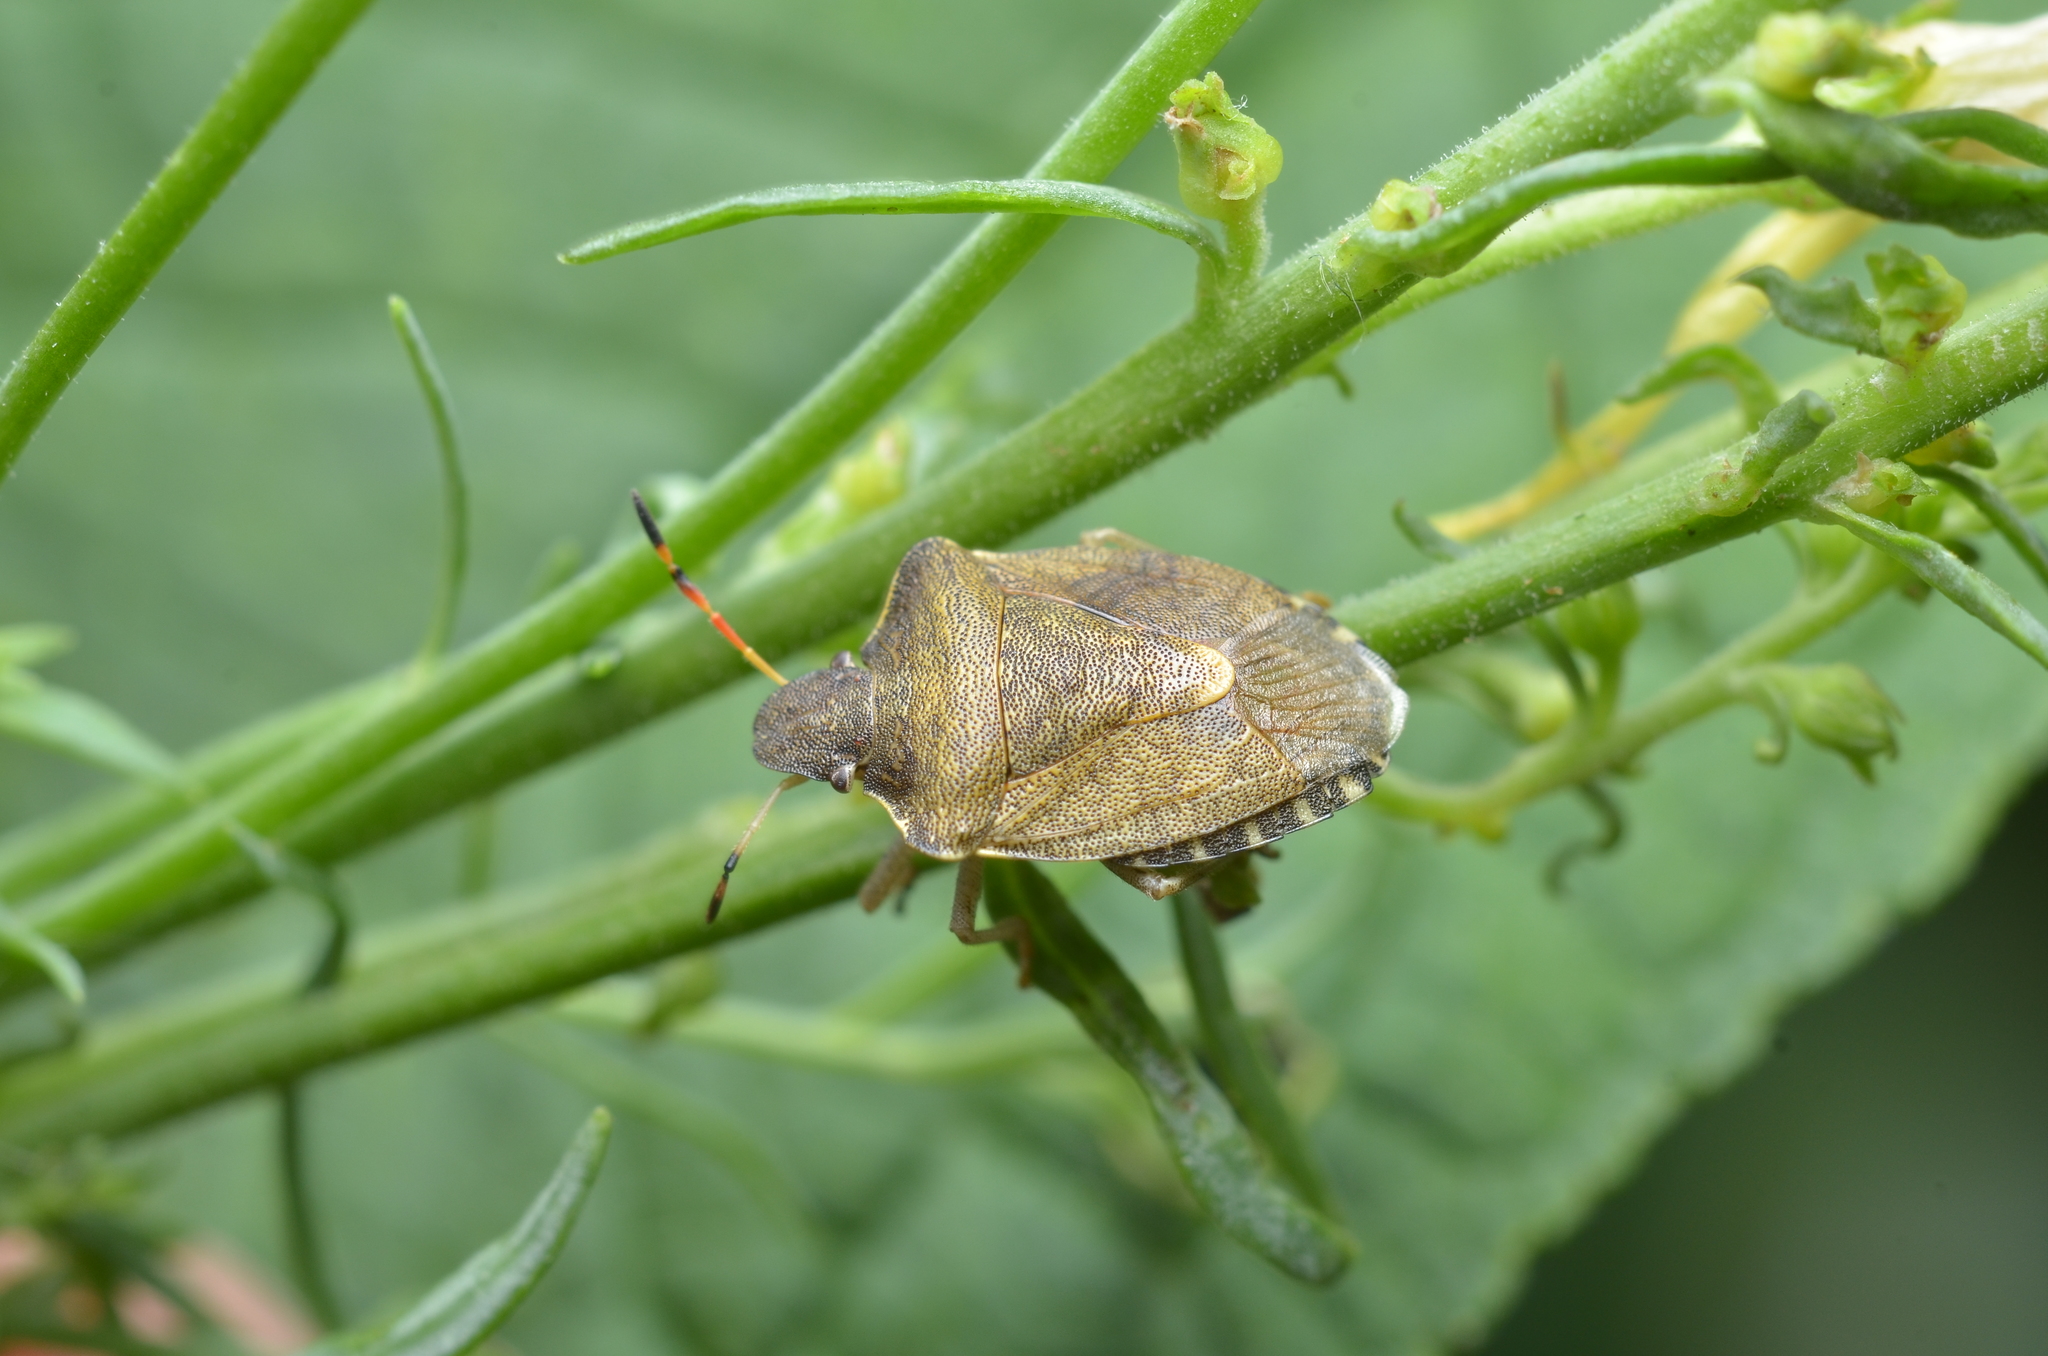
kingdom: Animalia
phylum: Arthropoda
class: Insecta
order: Hemiptera
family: Pentatomidae
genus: Holcostethus
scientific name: Holcostethus strictus
